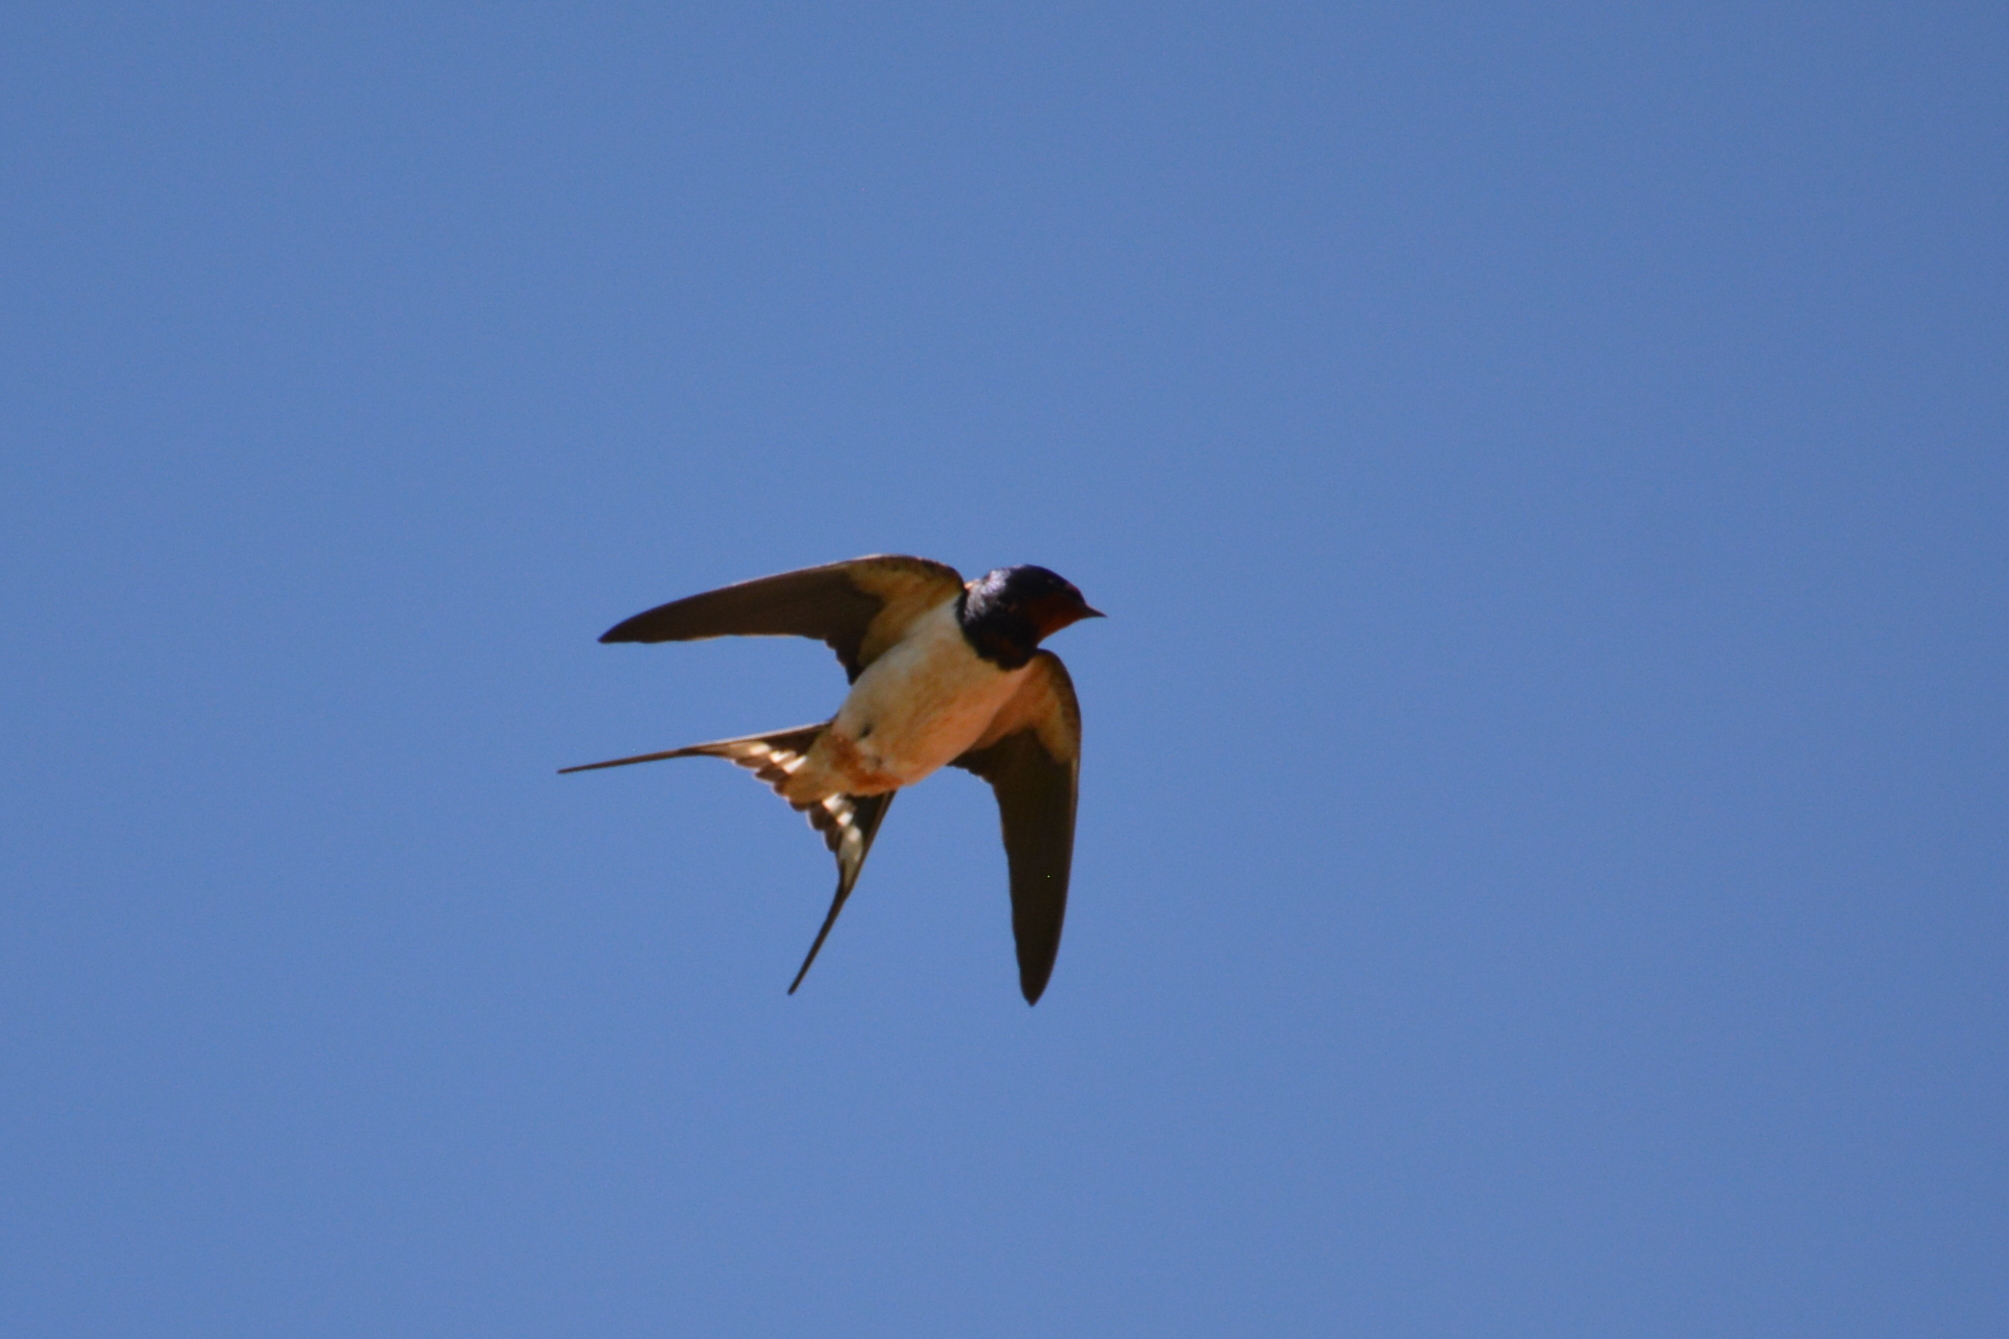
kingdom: Animalia
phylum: Chordata
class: Aves
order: Passeriformes
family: Hirundinidae
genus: Hirundo
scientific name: Hirundo rustica
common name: Barn swallow
